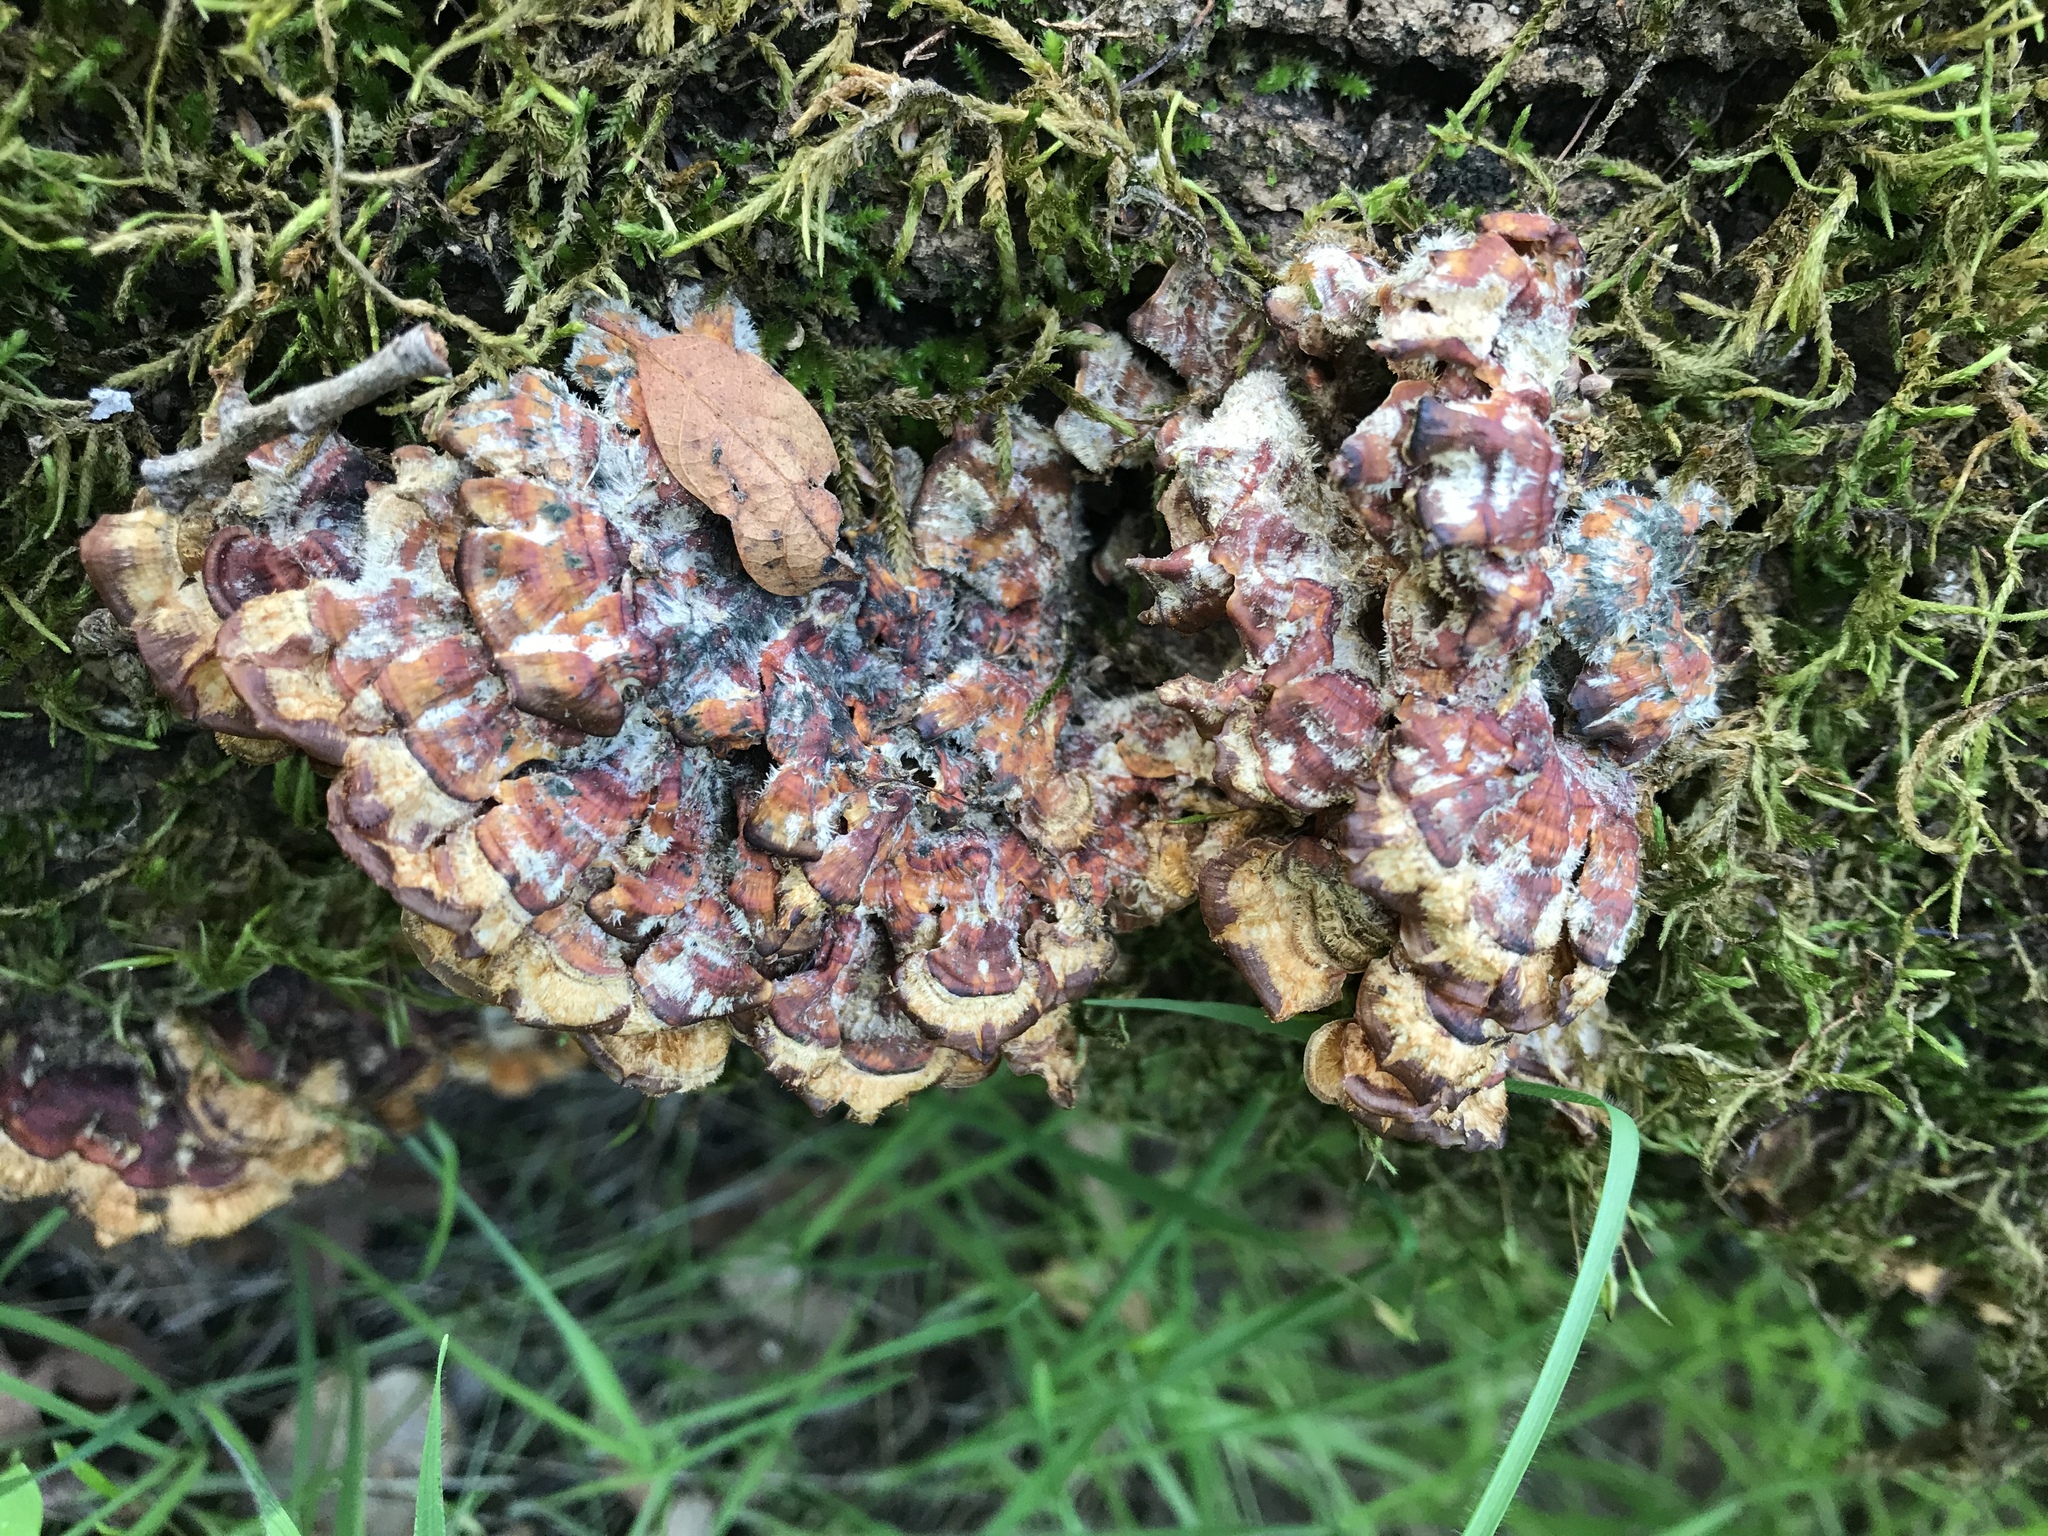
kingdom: Fungi
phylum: Basidiomycota
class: Agaricomycetes
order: Russulales
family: Stereaceae
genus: Stereum
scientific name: Stereum hirsutum
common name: Hairy curtain crust
